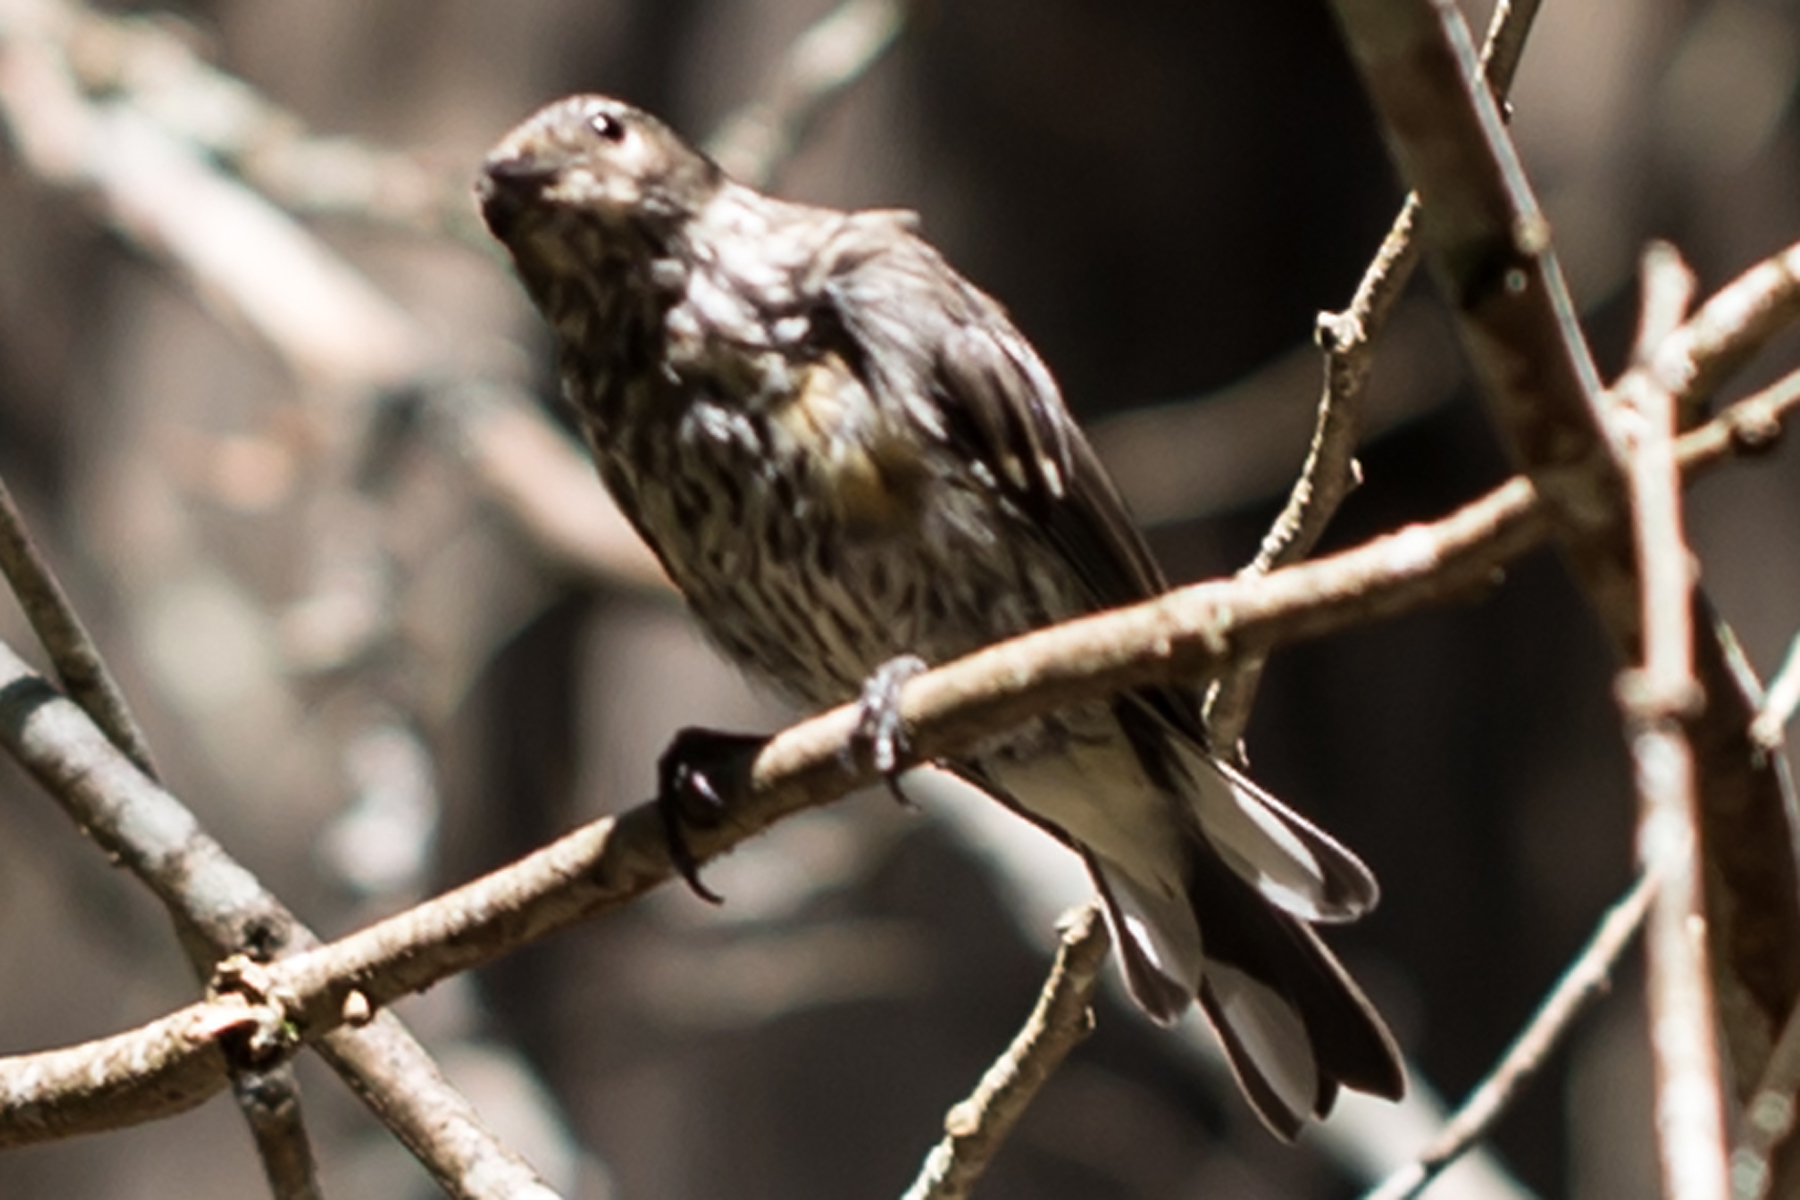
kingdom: Animalia
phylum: Chordata
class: Aves
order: Passeriformes
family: Parulidae
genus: Setophaga
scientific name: Setophaga coronata
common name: Myrtle warbler
